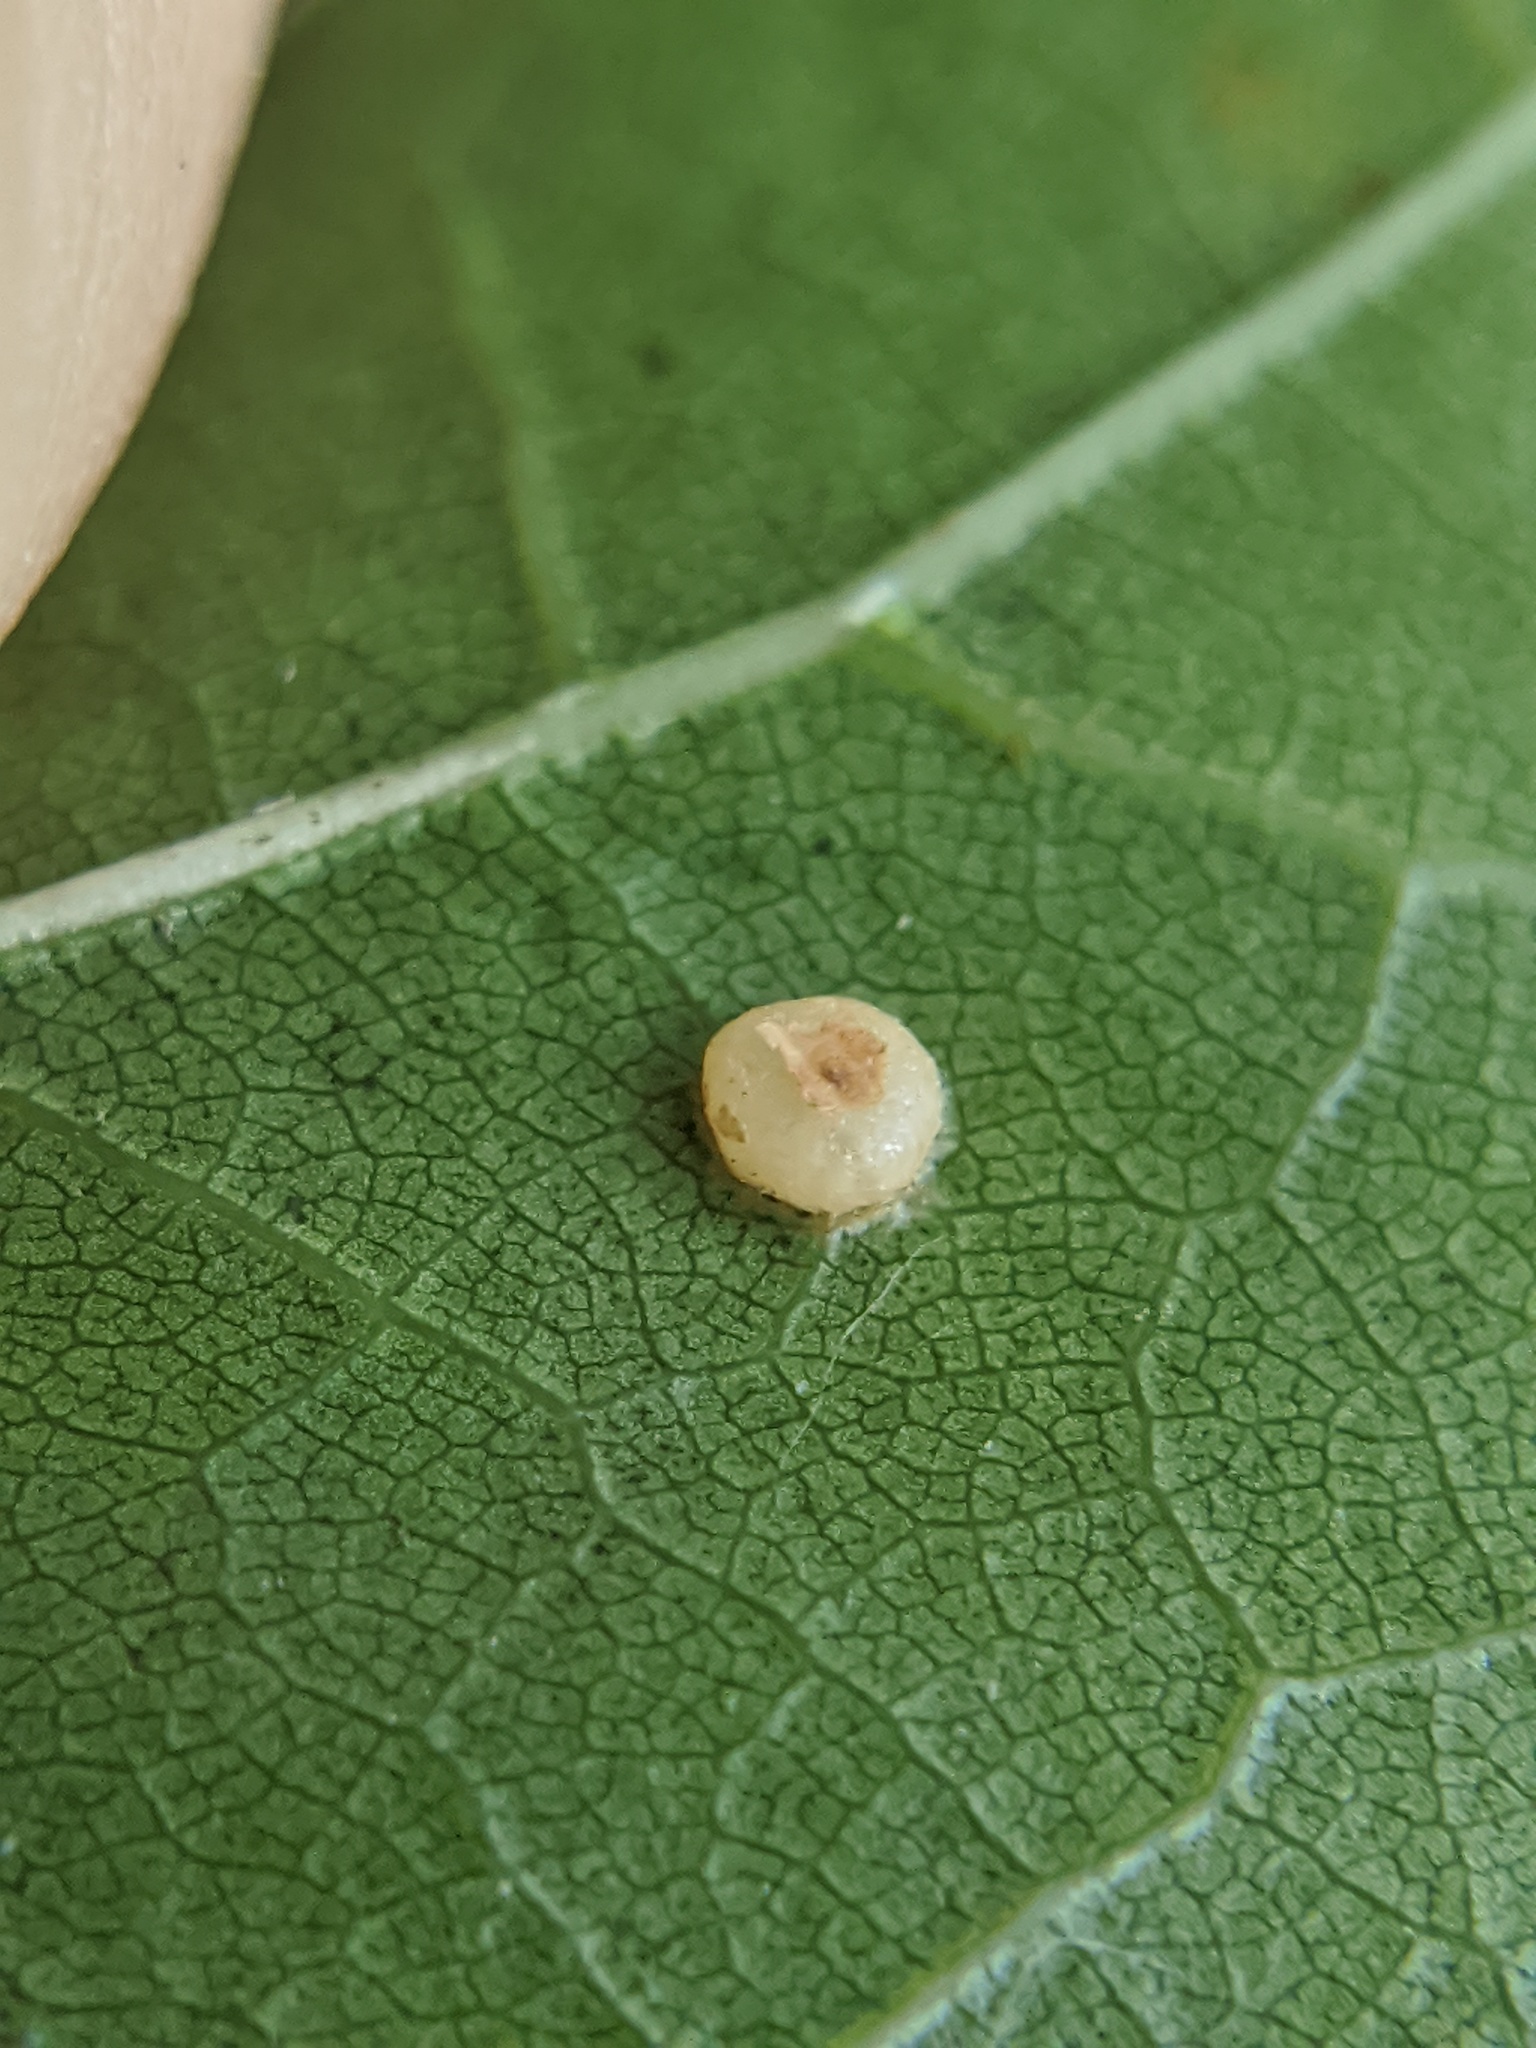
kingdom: Animalia
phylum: Arthropoda
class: Insecta
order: Diptera
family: Cecidomyiidae
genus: Polystepha
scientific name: Polystepha globosa
